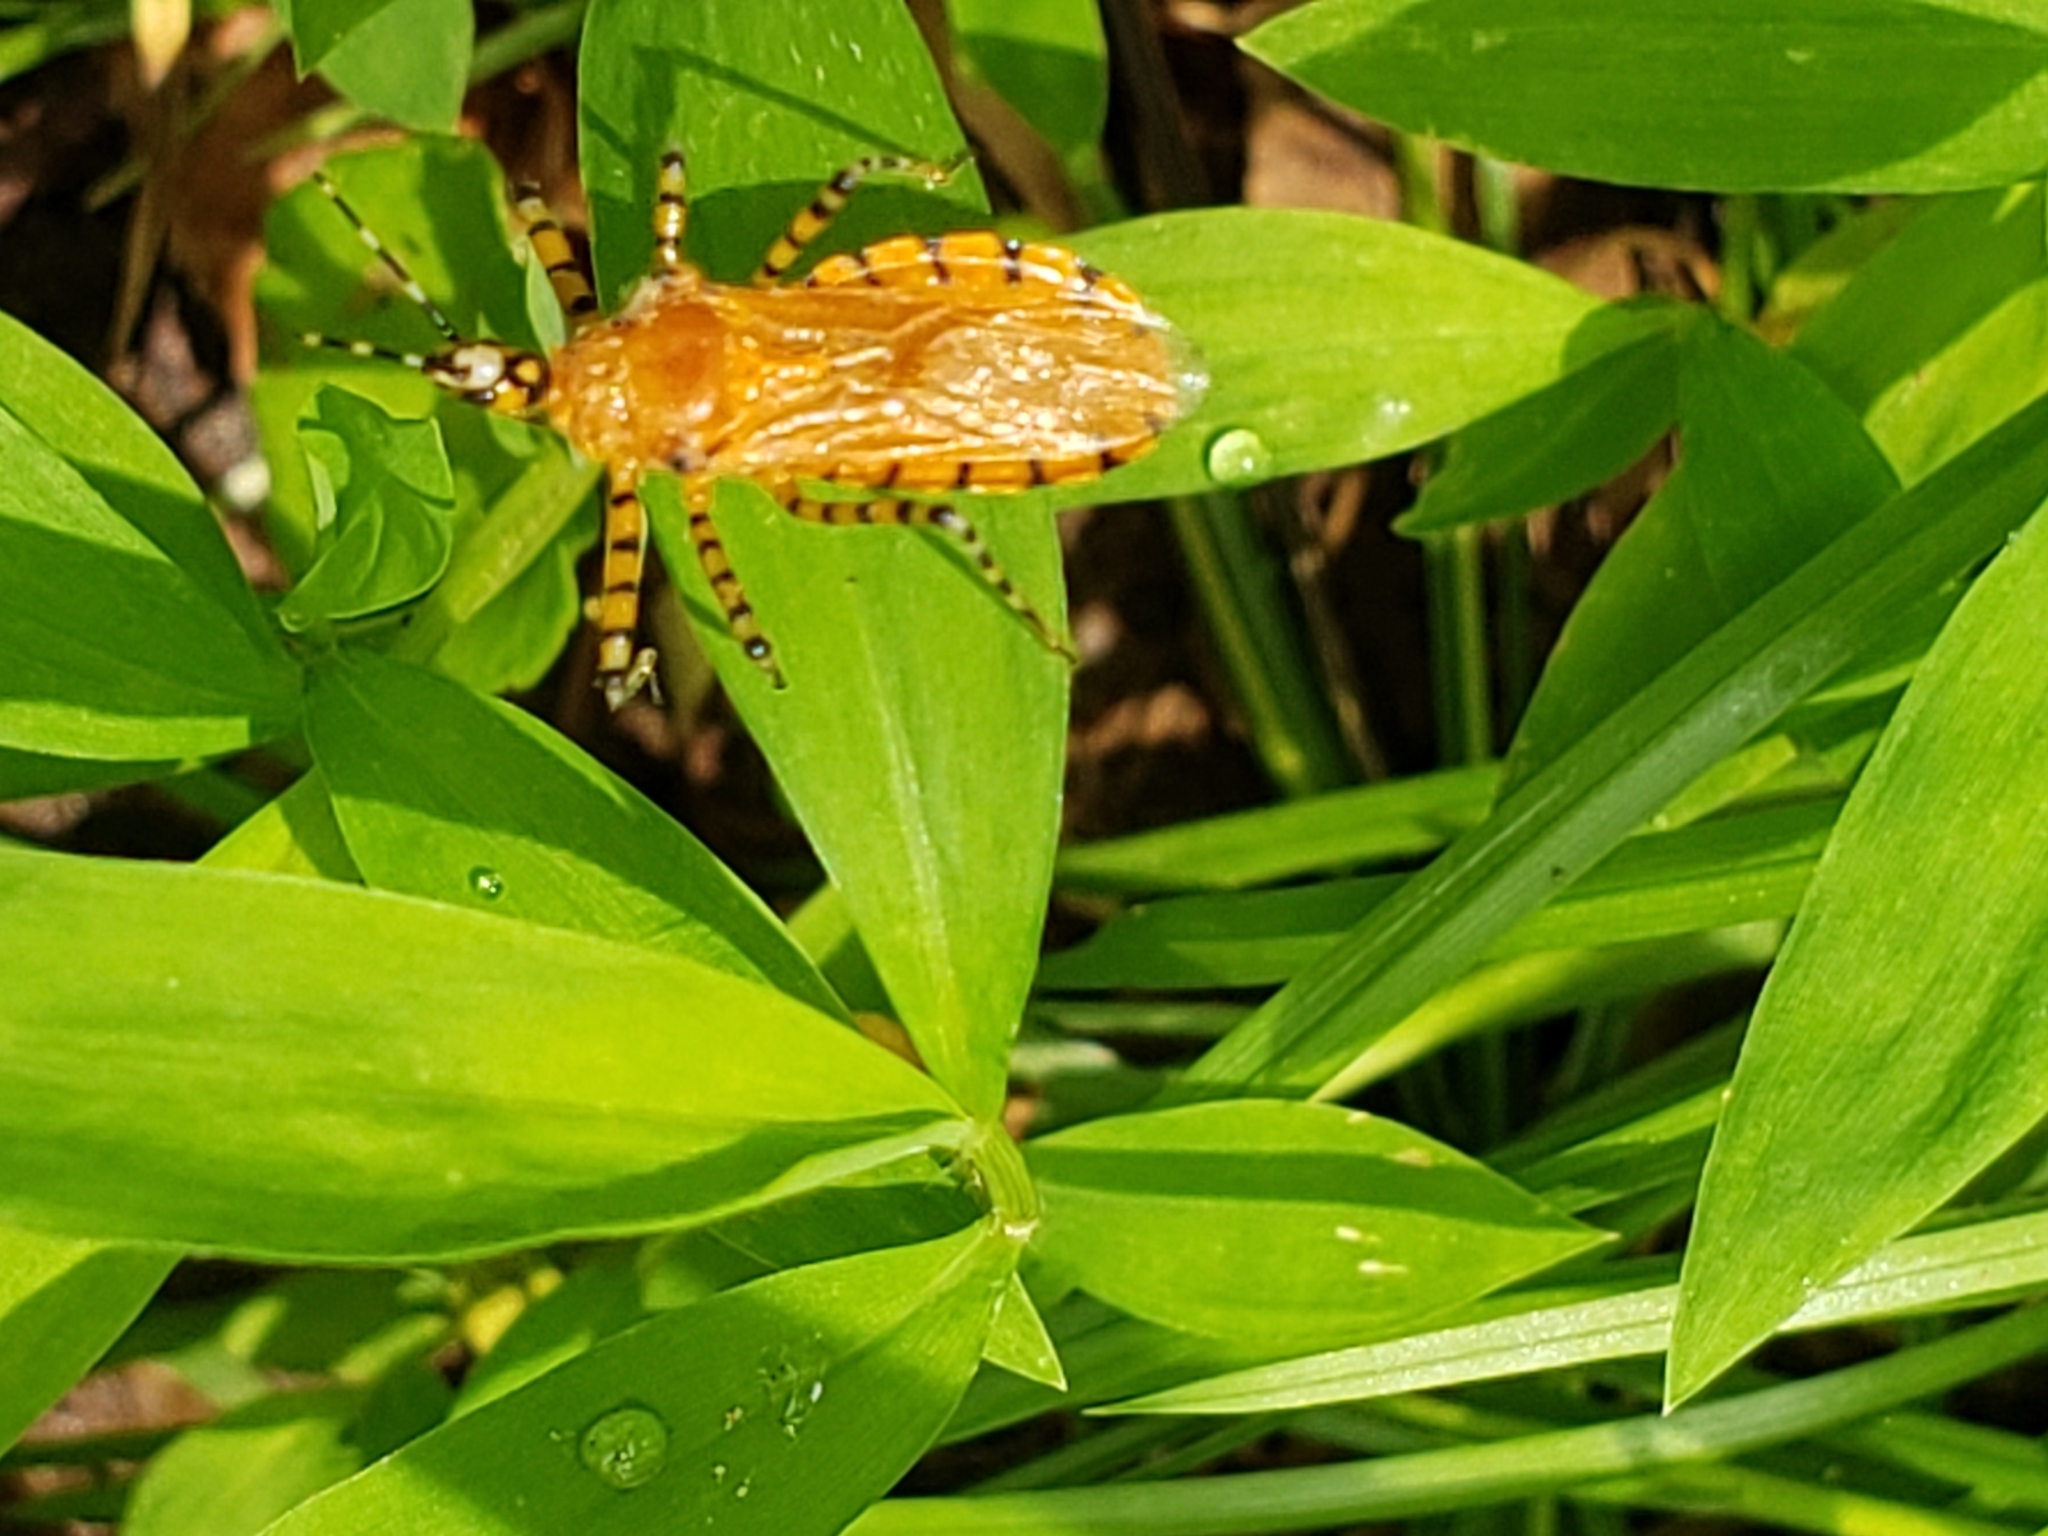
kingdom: Animalia
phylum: Arthropoda
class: Insecta
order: Hemiptera
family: Reduviidae
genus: Pselliopus
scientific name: Pselliopus barberi
